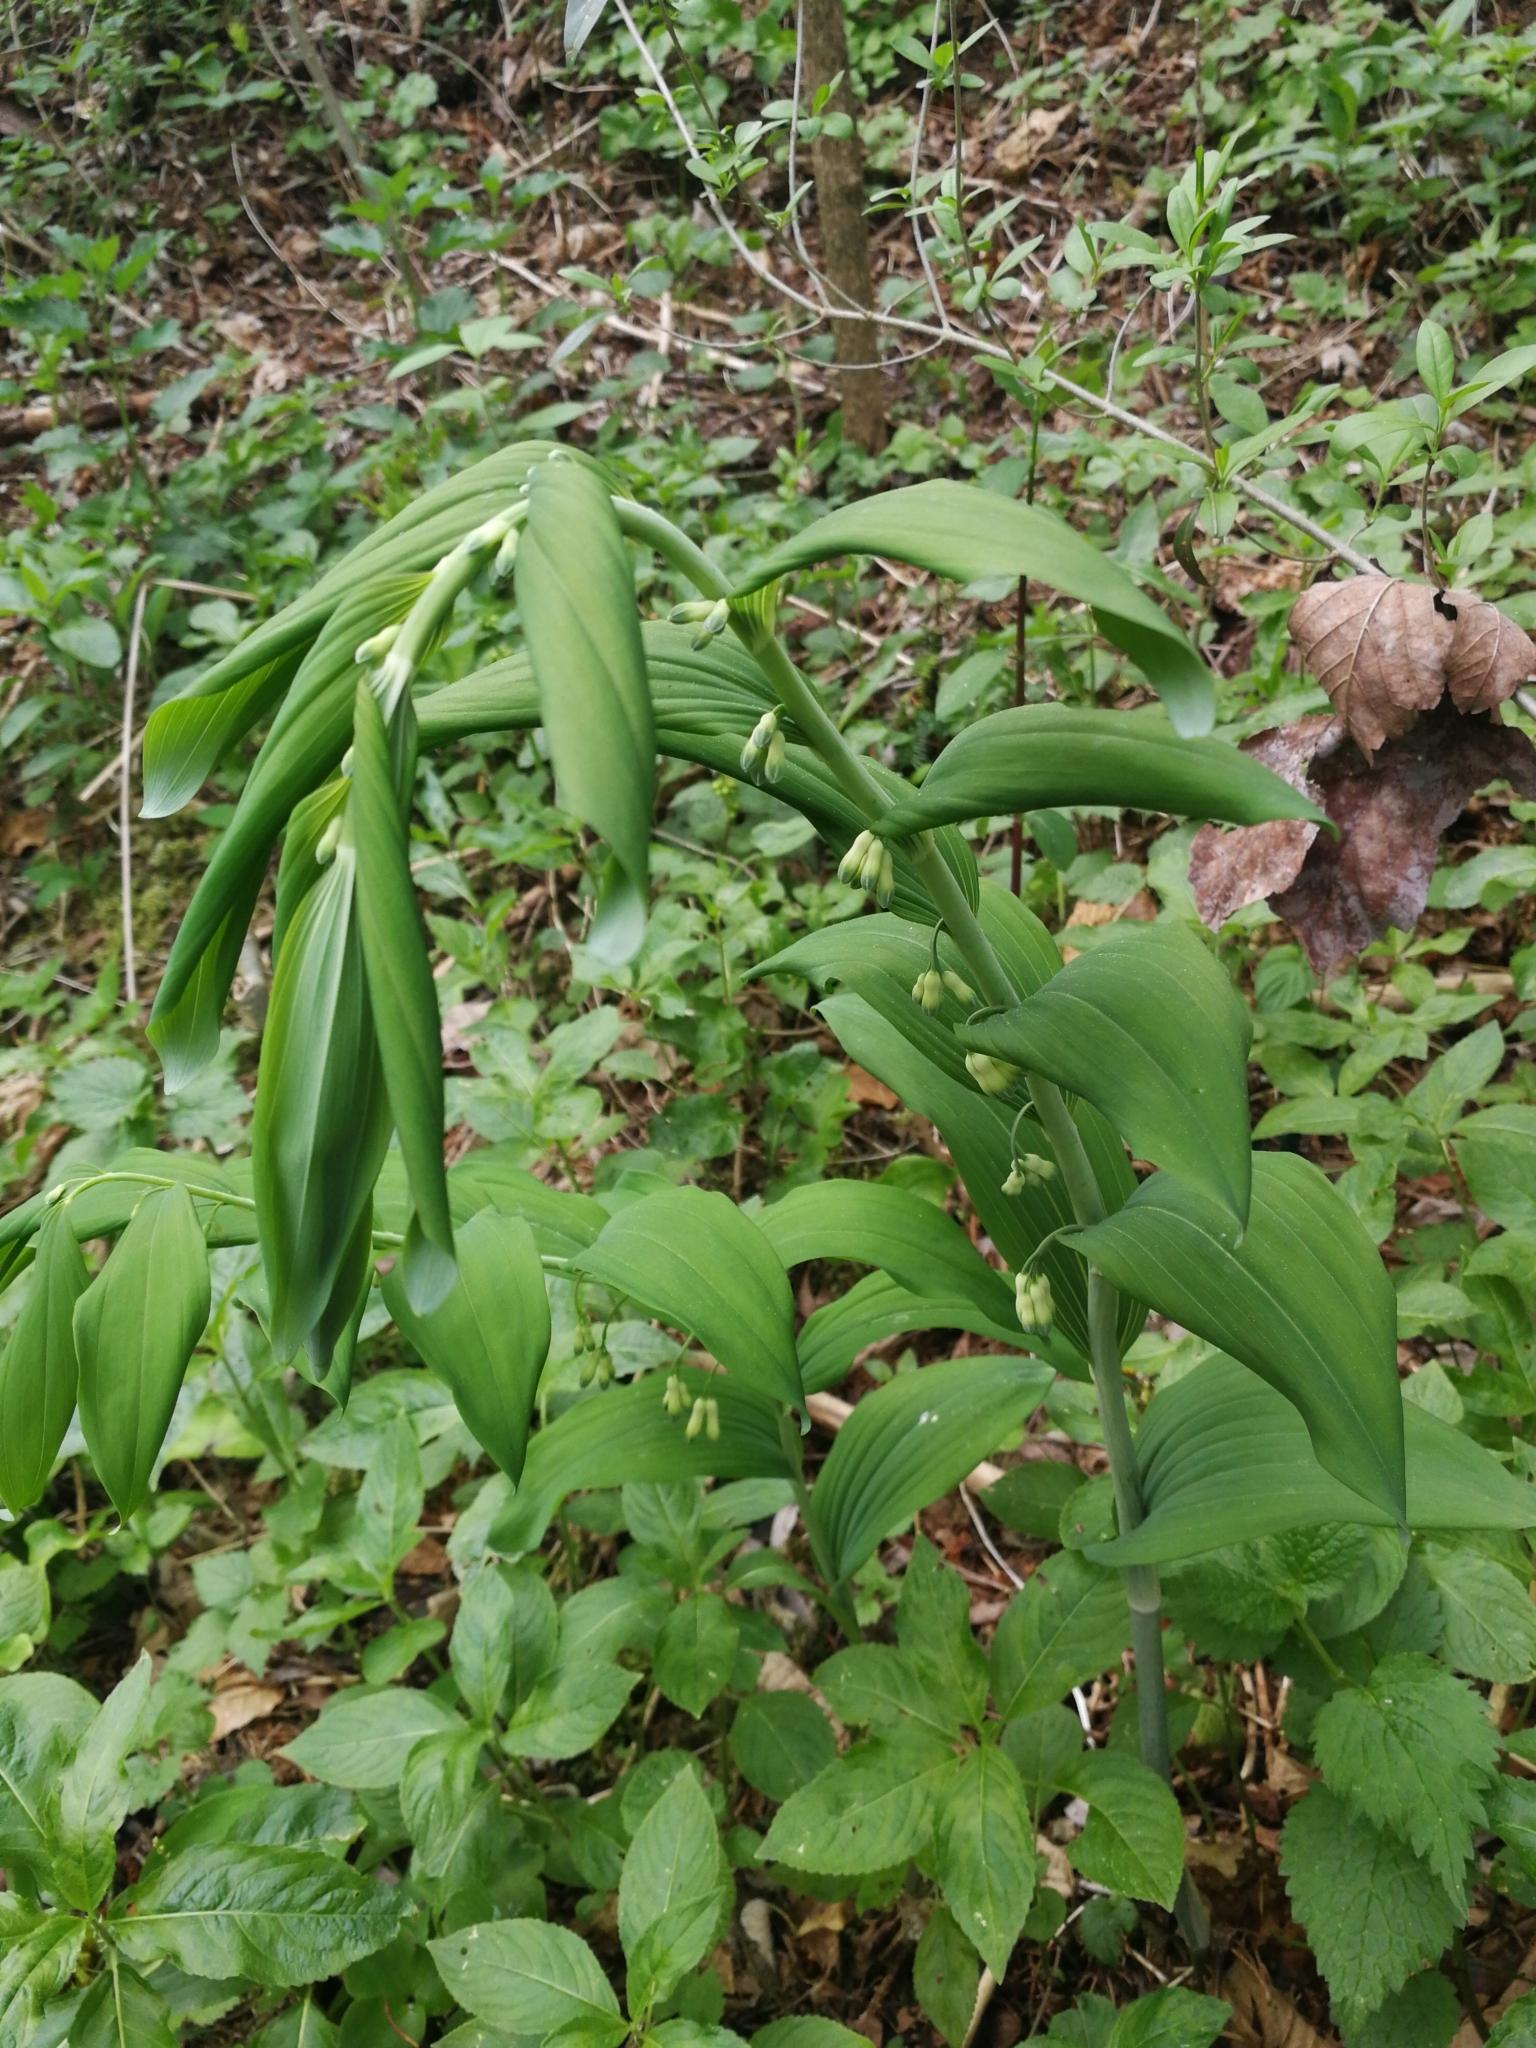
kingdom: Plantae
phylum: Tracheophyta
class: Liliopsida
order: Asparagales
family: Asparagaceae
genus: Polygonatum
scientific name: Polygonatum multiflorum
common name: Solomon's-seal
